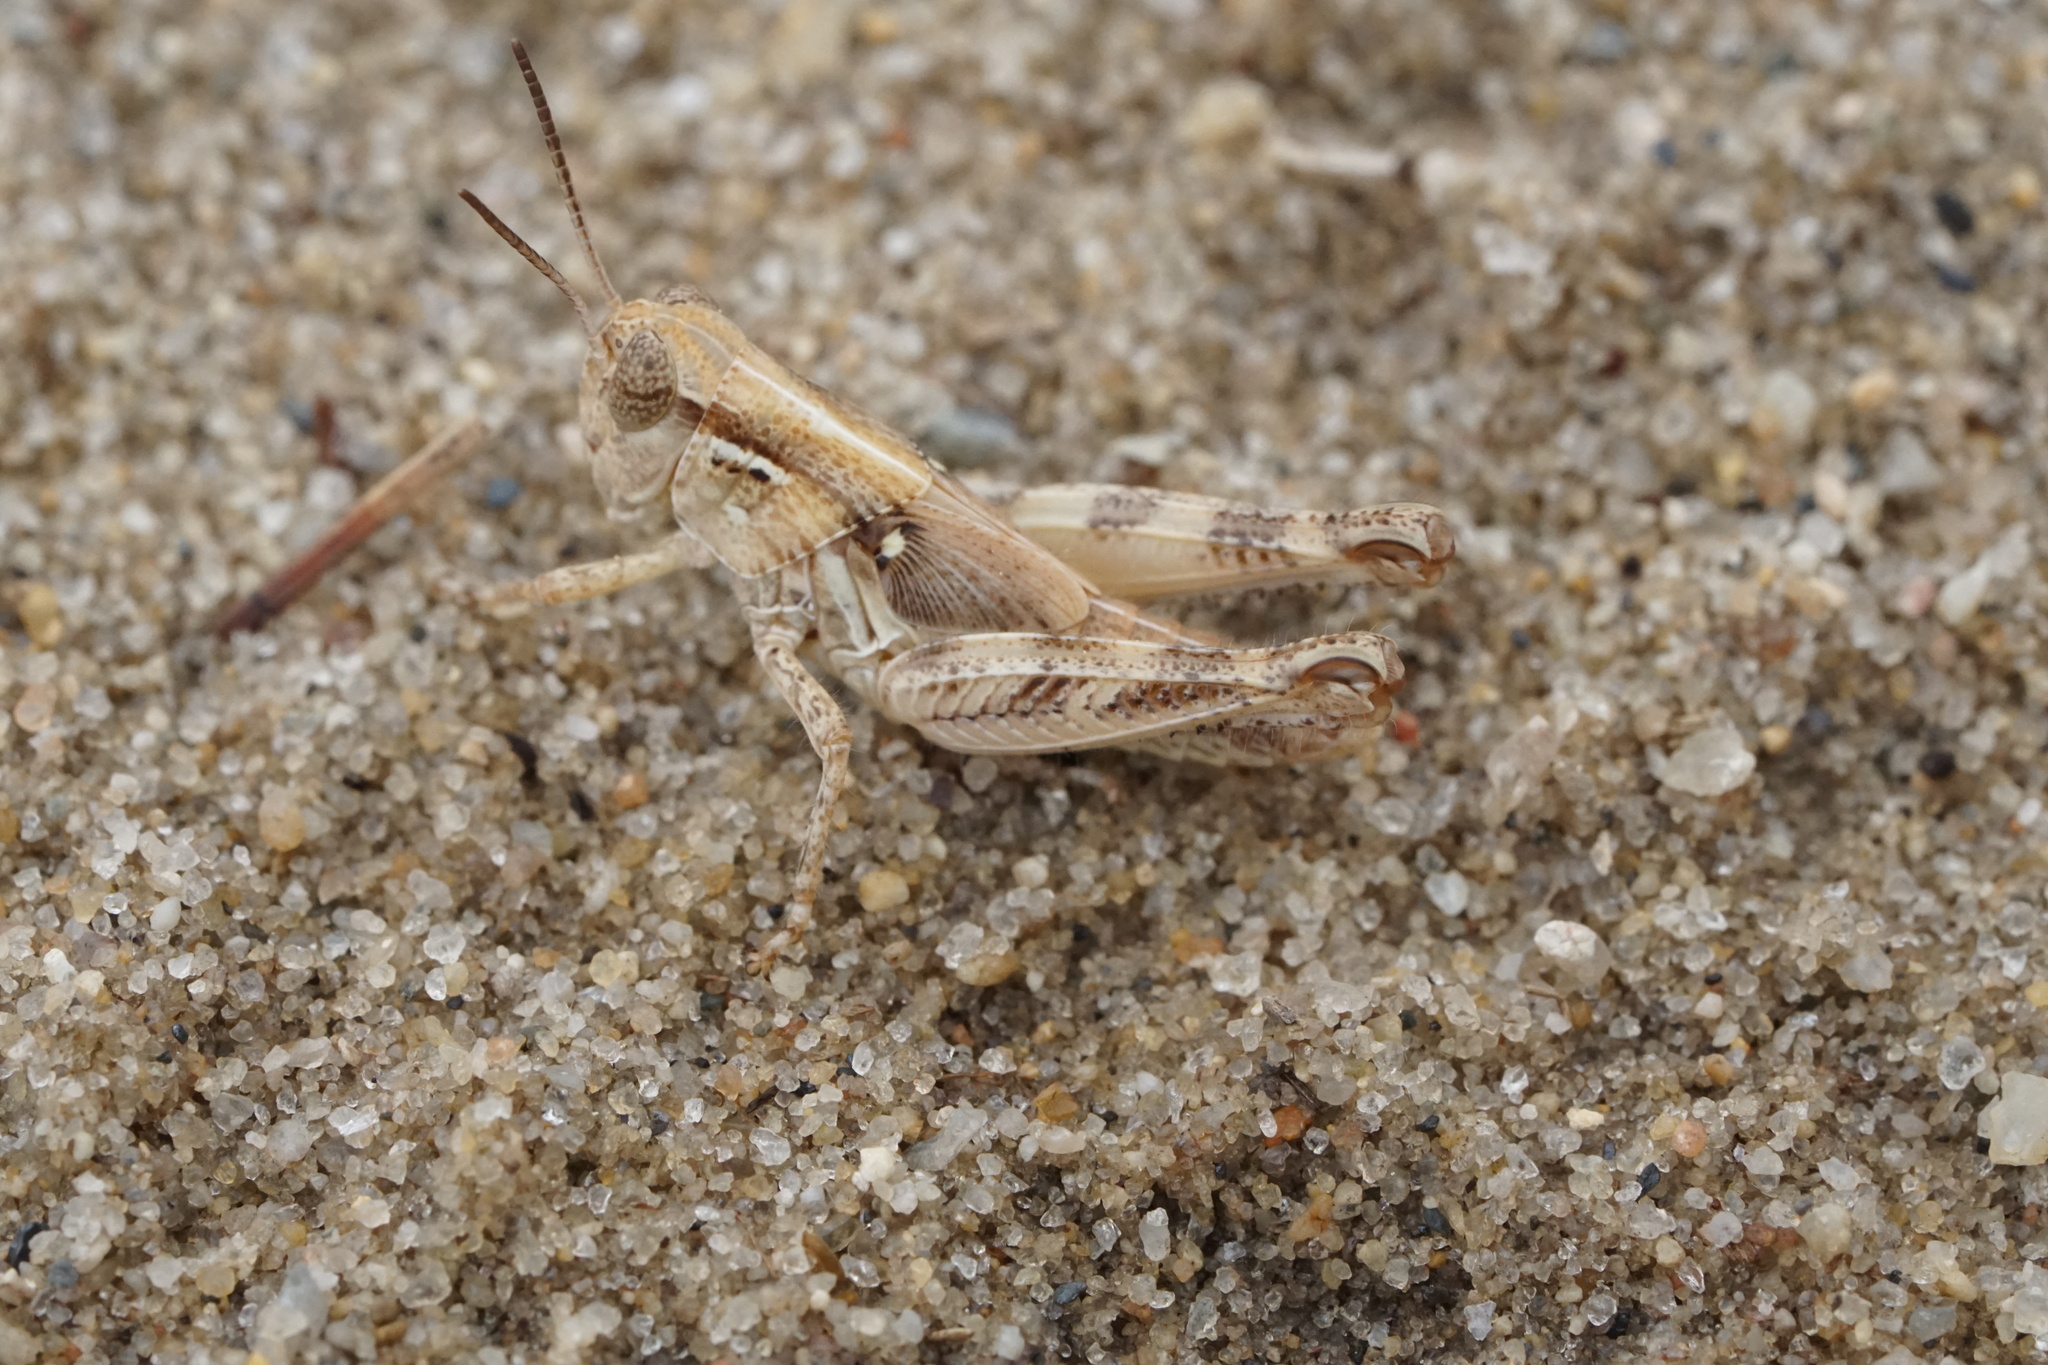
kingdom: Animalia
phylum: Arthropoda
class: Insecta
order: Orthoptera
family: Acrididae
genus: Melanoplus
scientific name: Melanoplus confusus
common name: Little pasture locust
